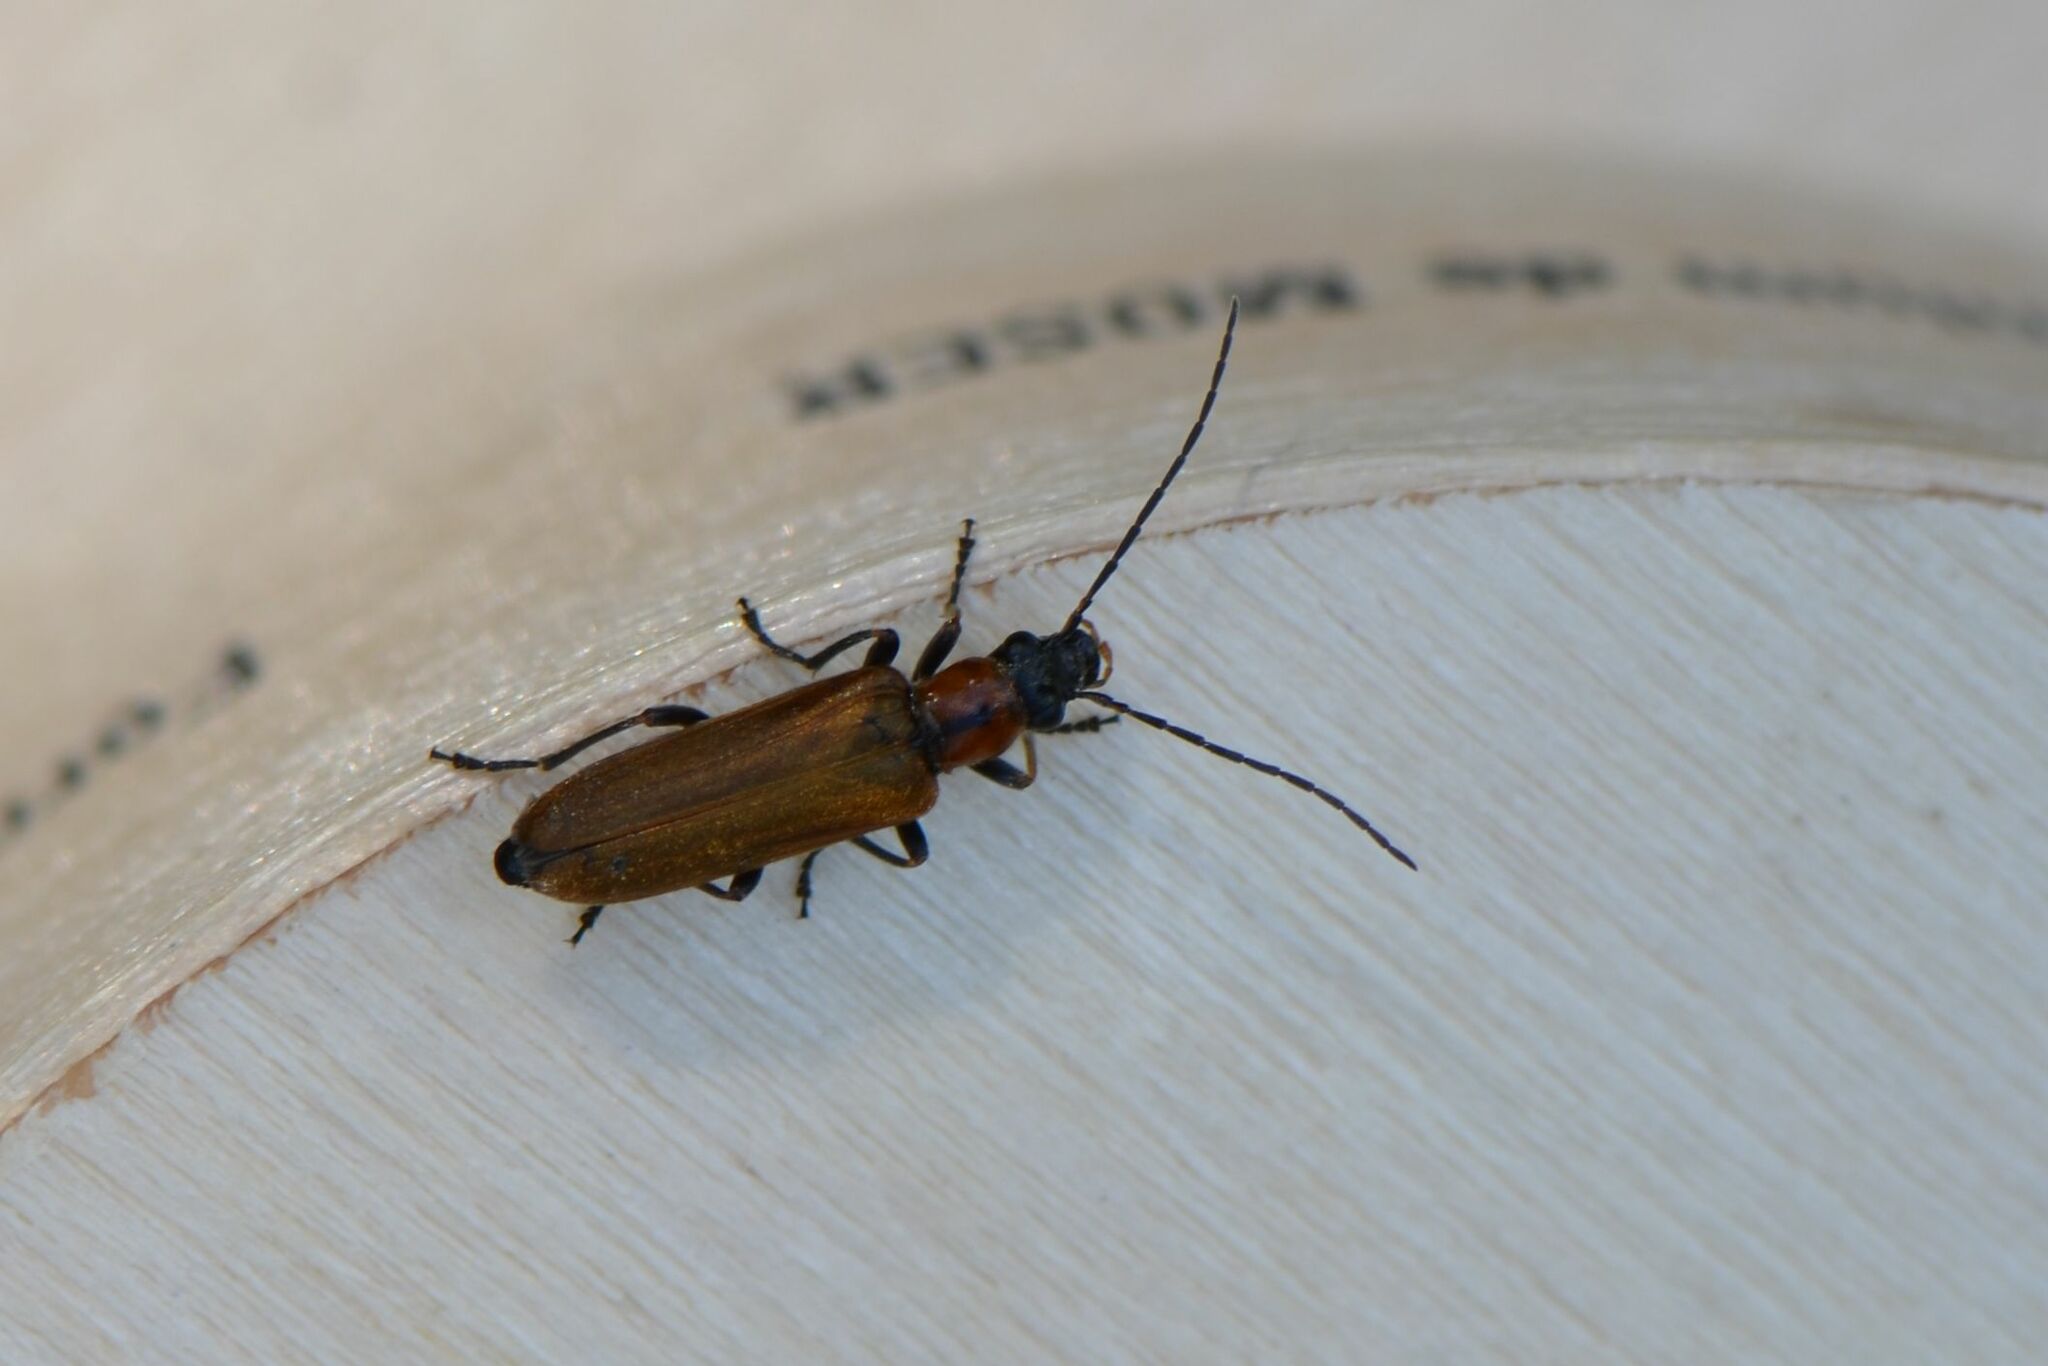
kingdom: Animalia
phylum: Arthropoda
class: Insecta
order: Coleoptera
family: Oedemeridae
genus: Anogcodes
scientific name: Anogcodes rufiventris
